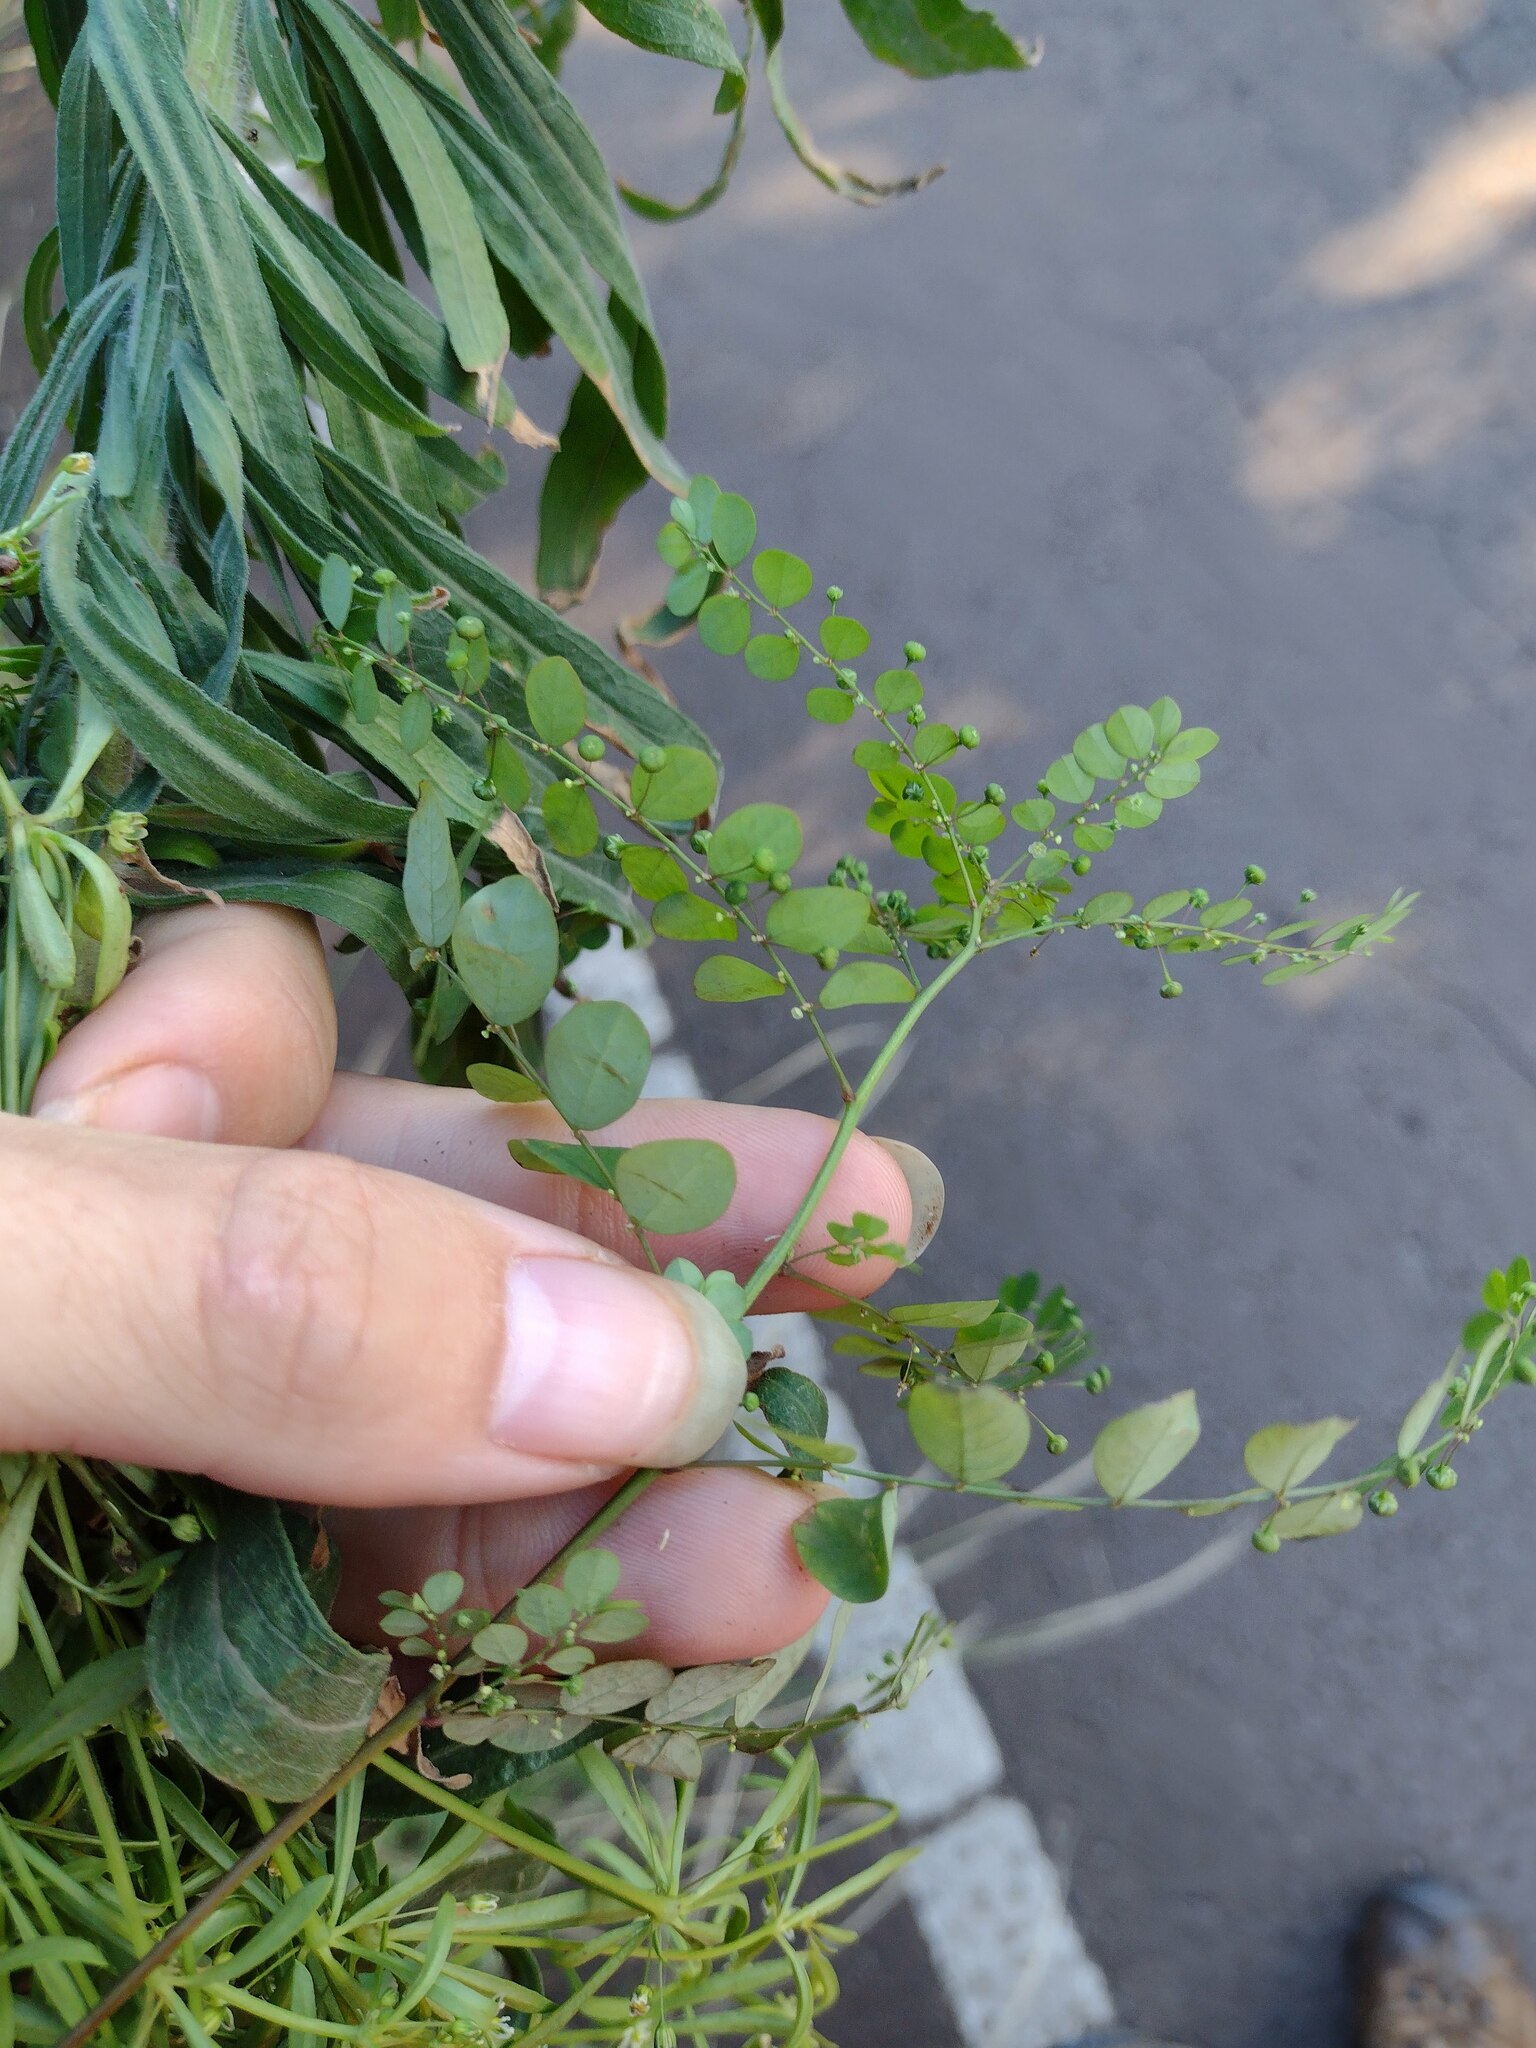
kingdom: Plantae
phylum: Tracheophyta
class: Magnoliopsida
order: Malpighiales
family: Phyllanthaceae
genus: Phyllanthus
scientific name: Phyllanthus tenellus
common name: Mascarene island leaf-flower
